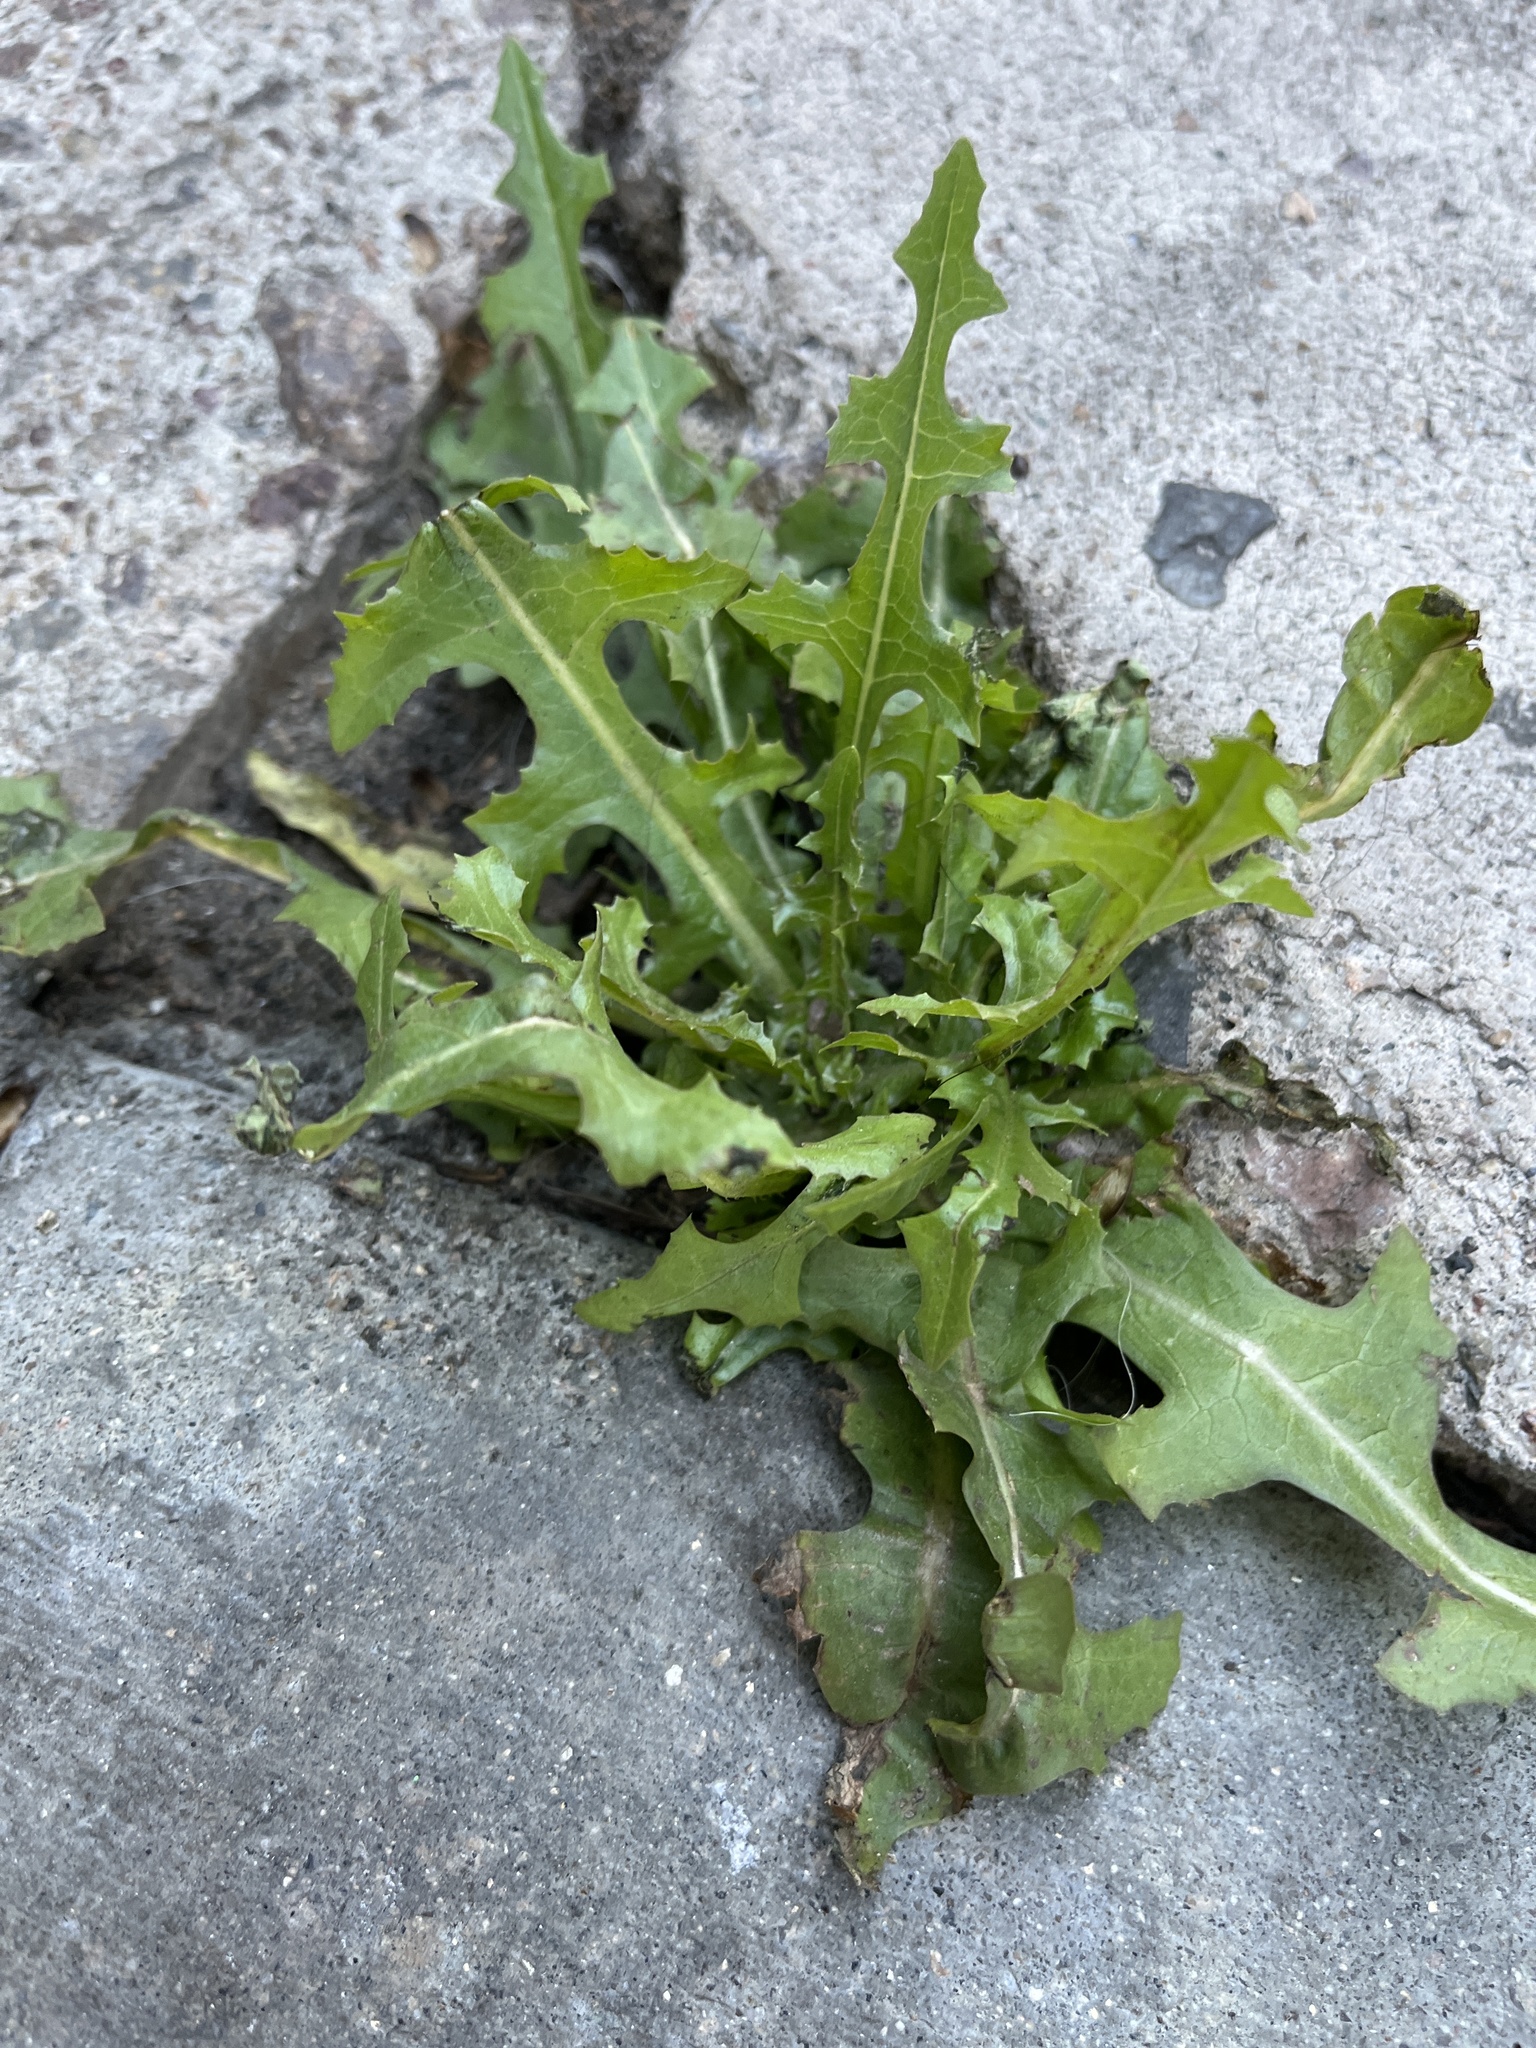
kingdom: Plantae
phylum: Tracheophyta
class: Magnoliopsida
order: Asterales
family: Asteraceae
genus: Lactuca
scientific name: Lactuca serriola
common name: Prickly lettuce
